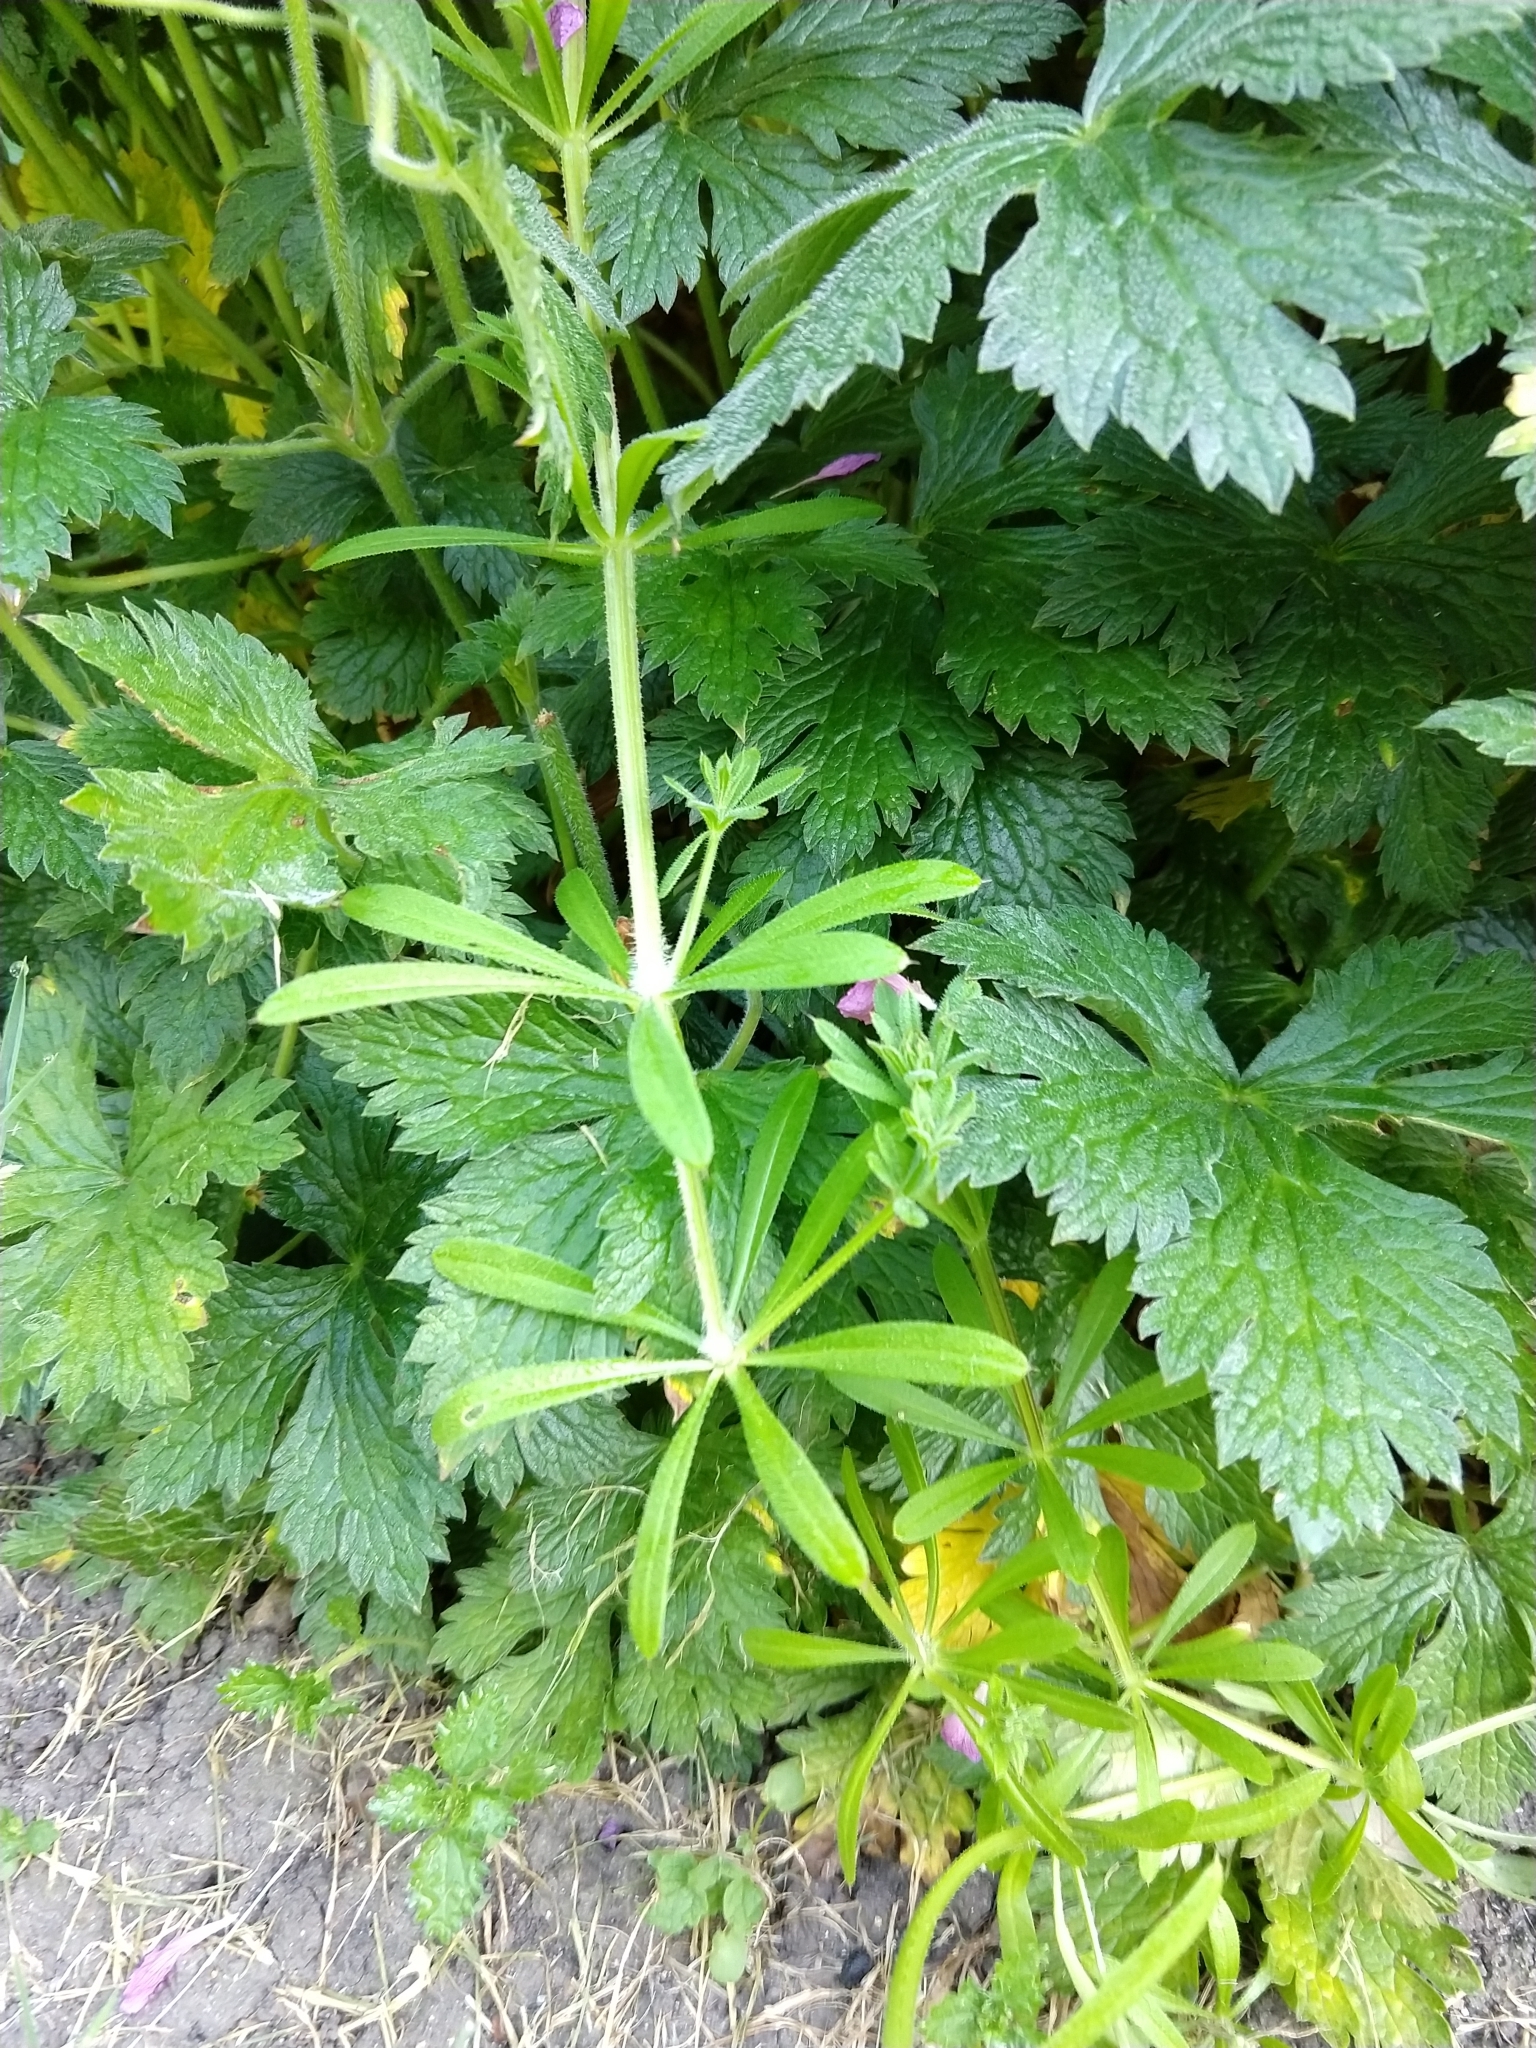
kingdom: Plantae
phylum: Tracheophyta
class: Magnoliopsida
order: Gentianales
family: Rubiaceae
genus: Galium
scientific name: Galium aparine
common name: Cleavers
